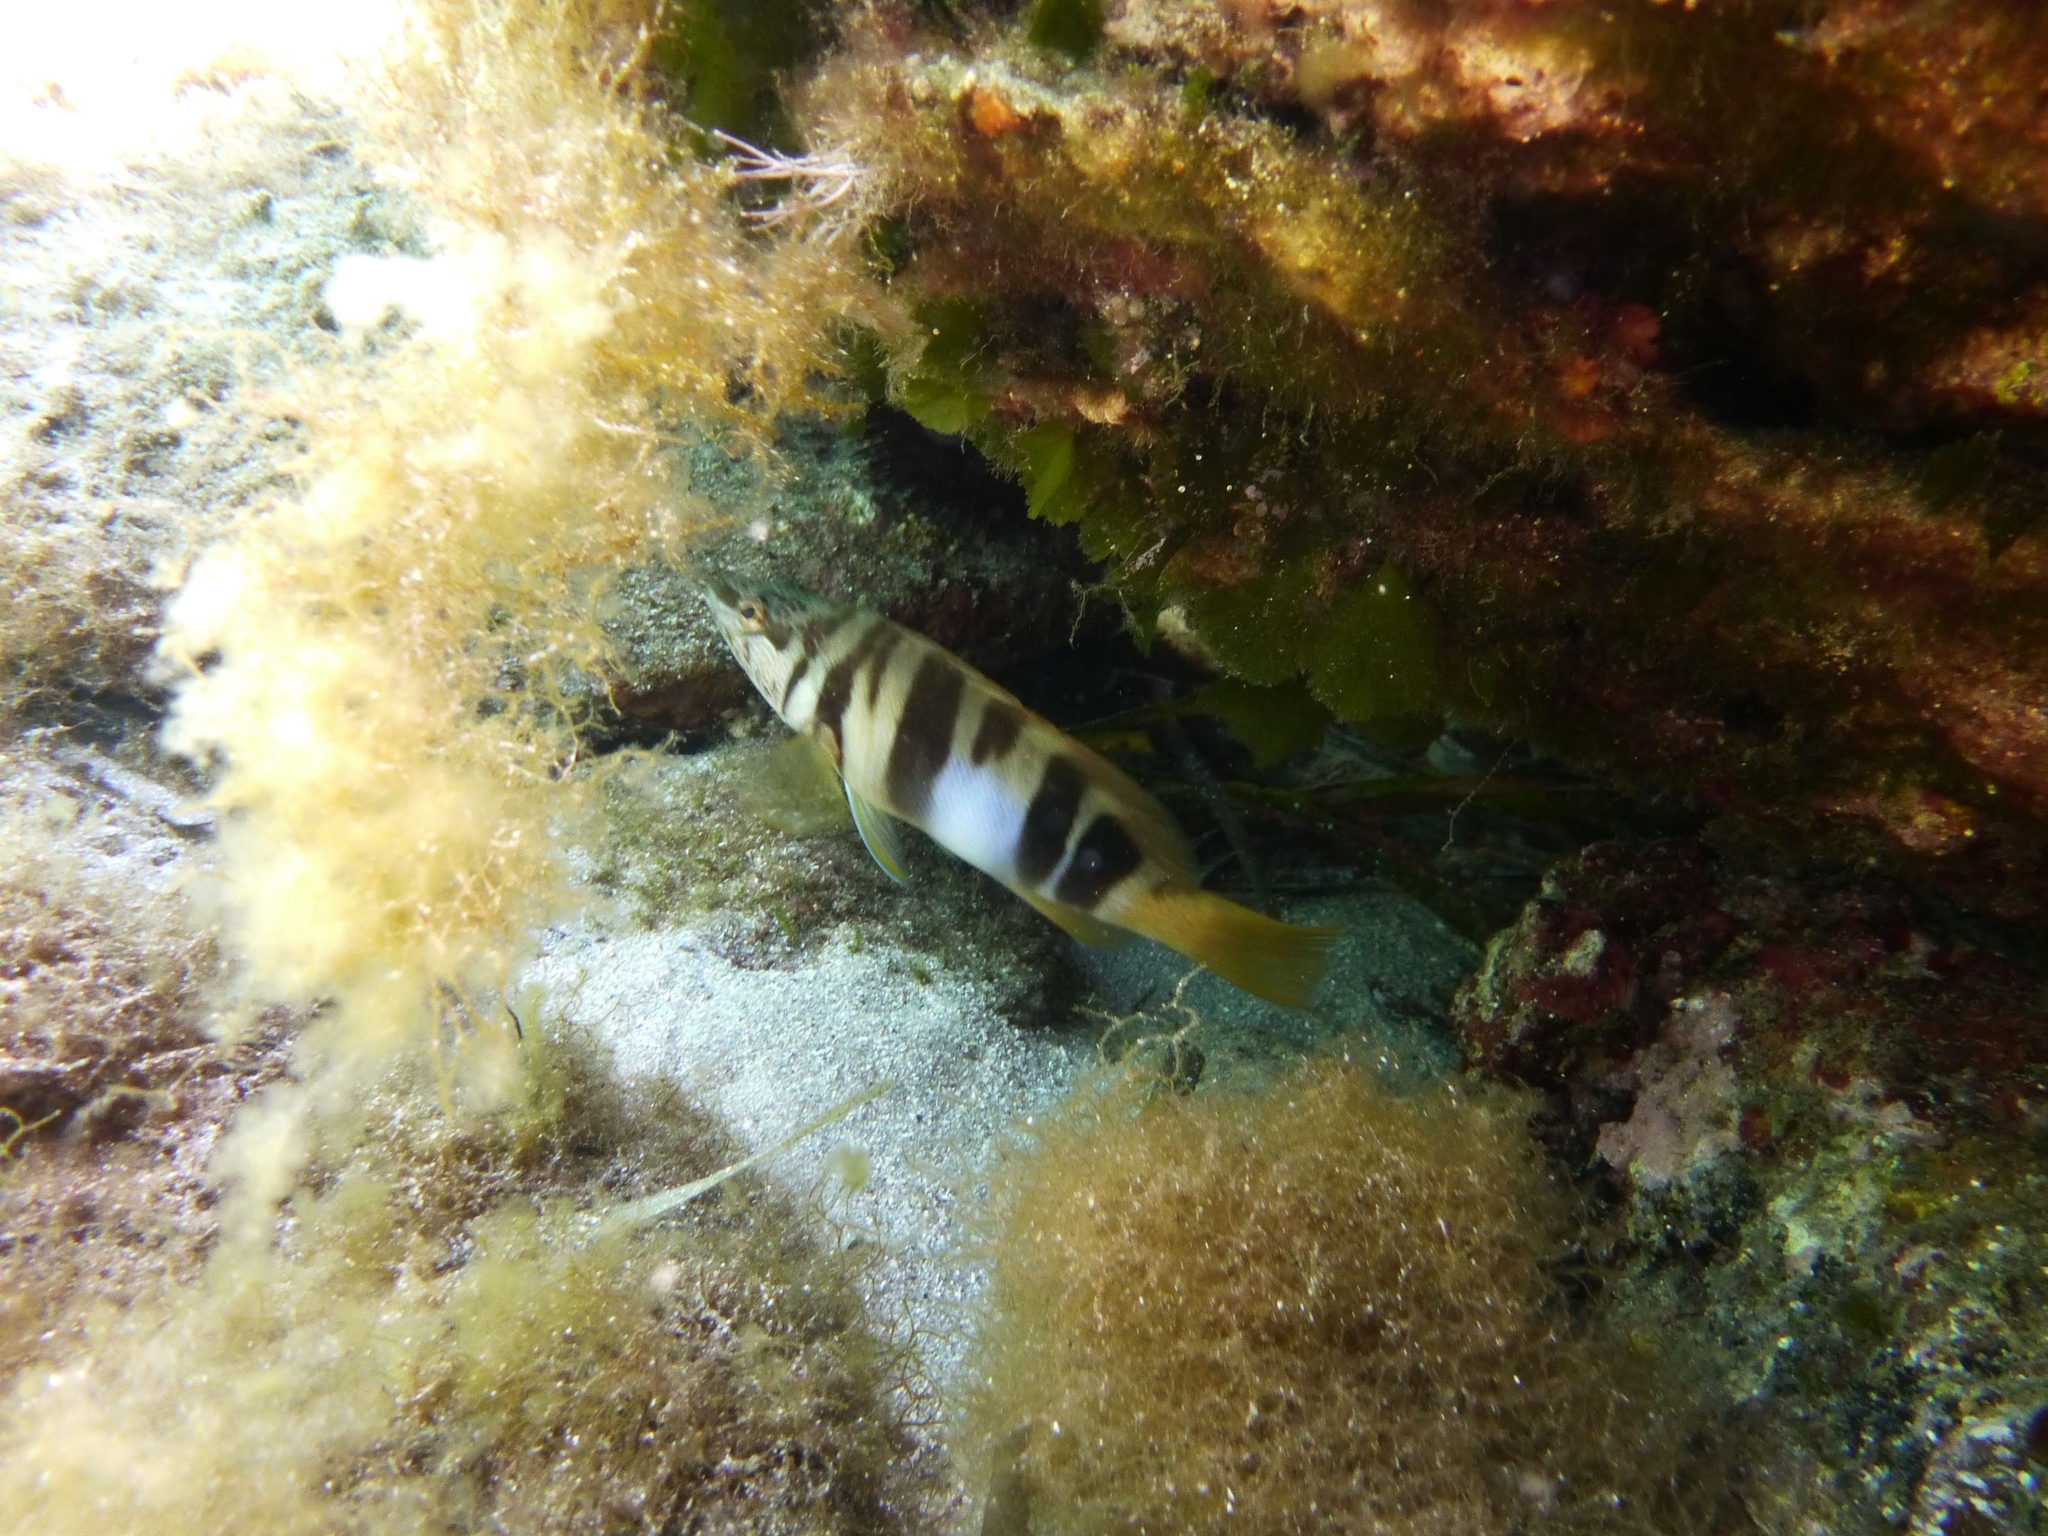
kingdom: Animalia
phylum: Chordata
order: Perciformes
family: Serranidae
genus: Serranus
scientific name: Serranus scriba
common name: Painted comber
